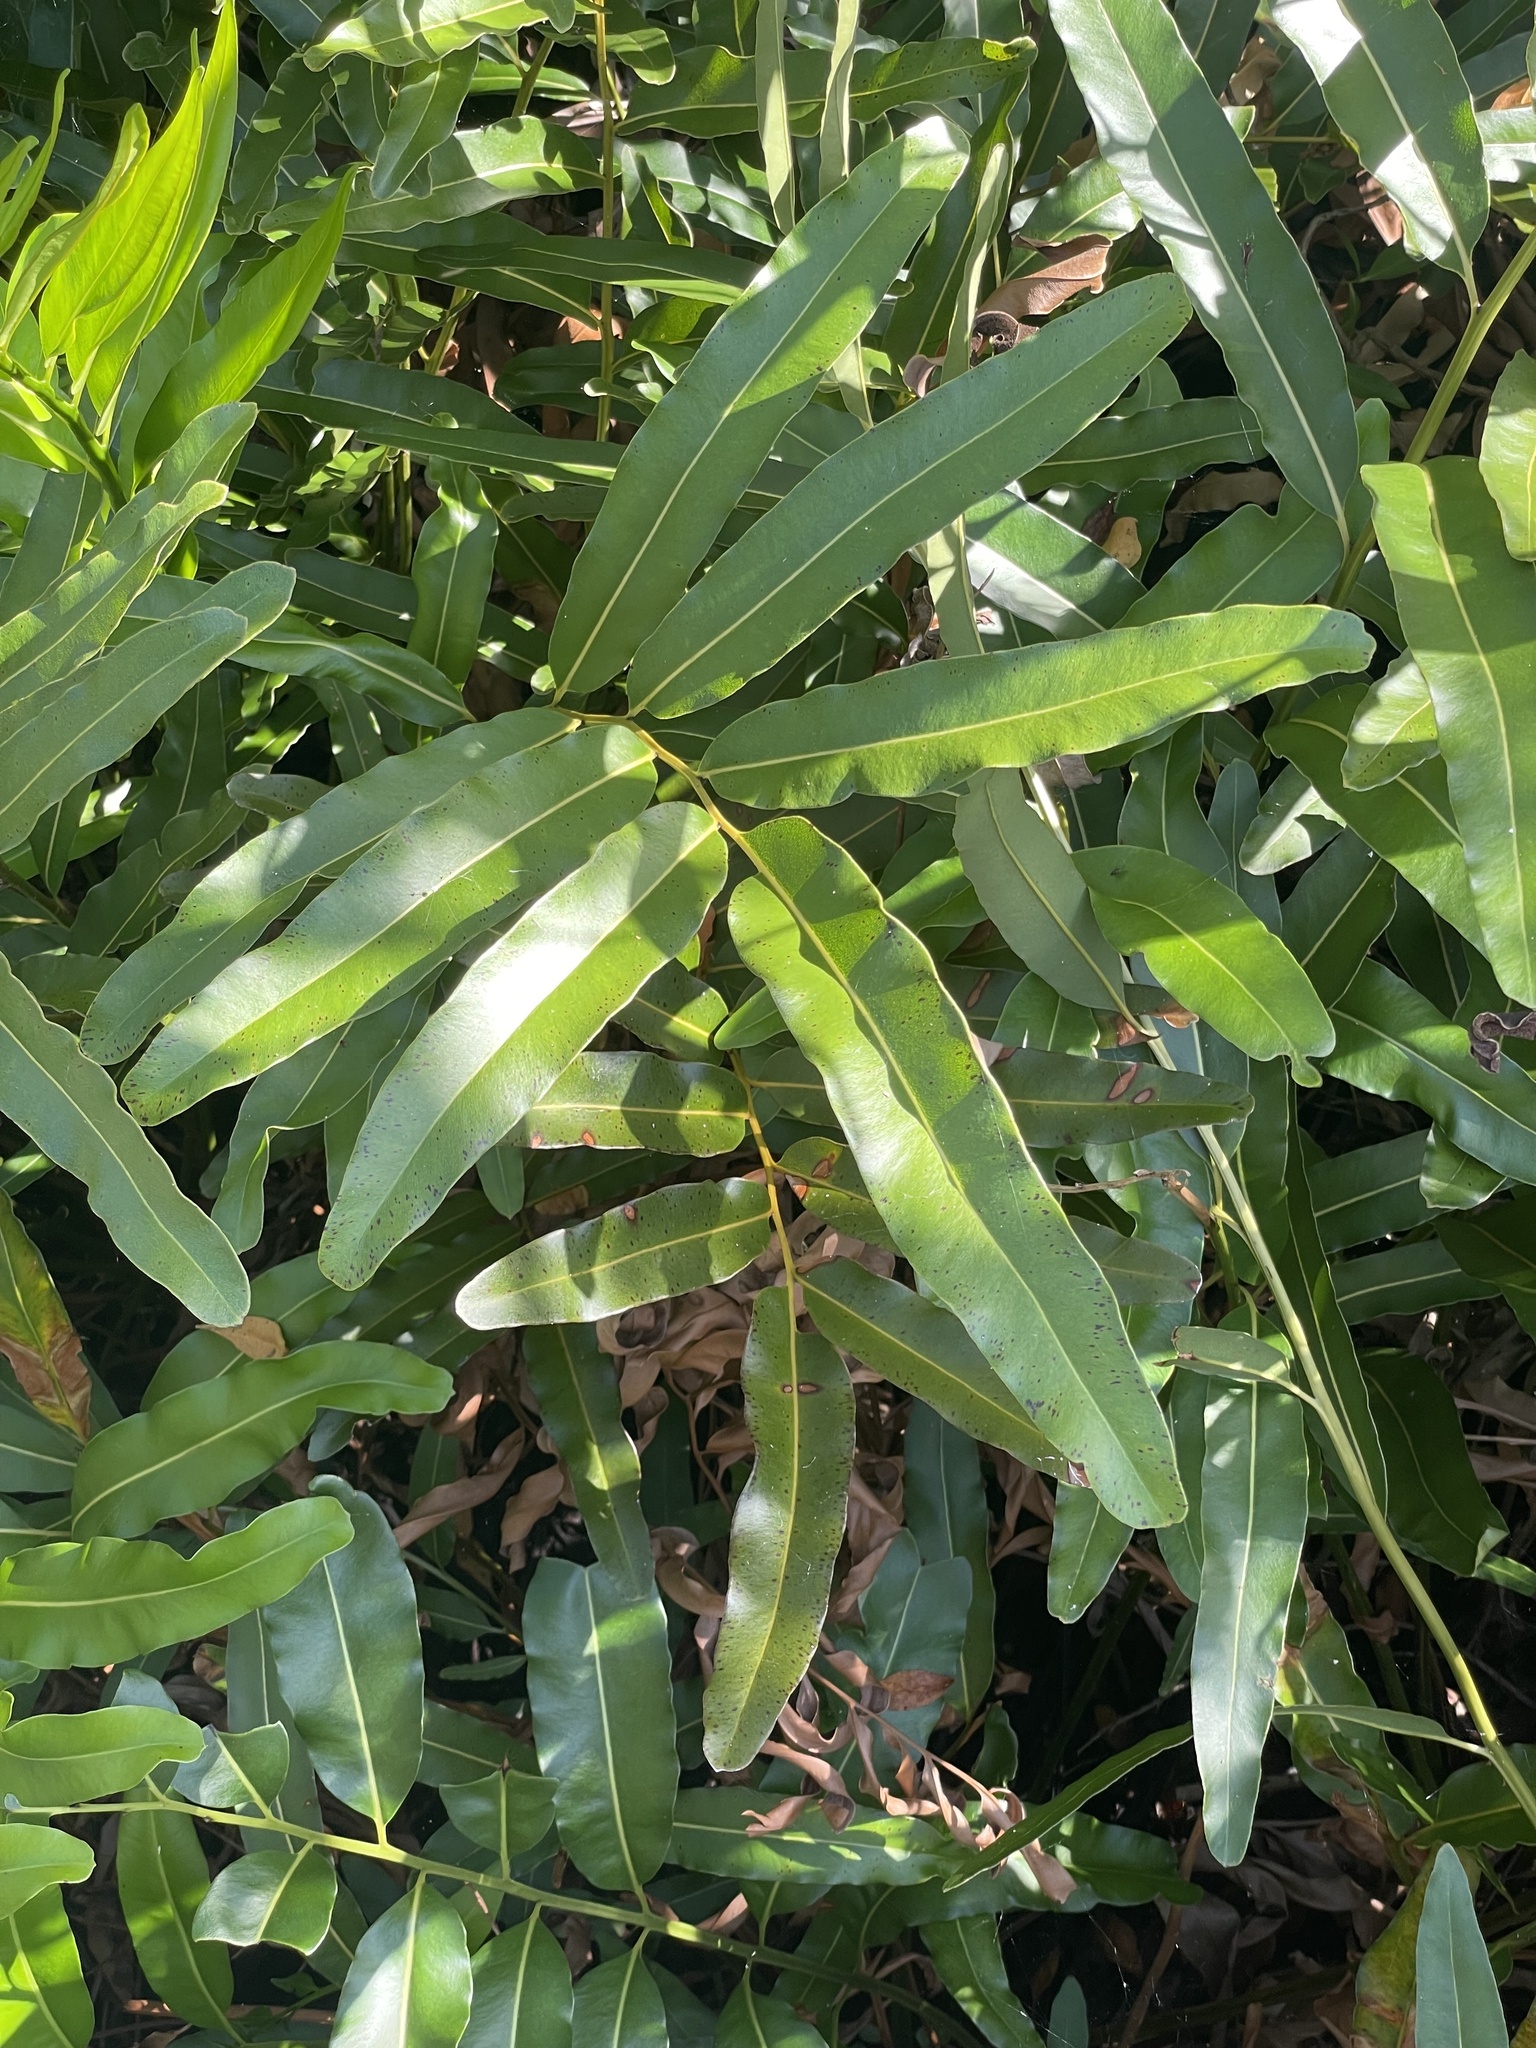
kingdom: Plantae
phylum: Tracheophyta
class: Polypodiopsida
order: Polypodiales
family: Pteridaceae
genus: Acrostichum
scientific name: Acrostichum aureum
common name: Leather fern
